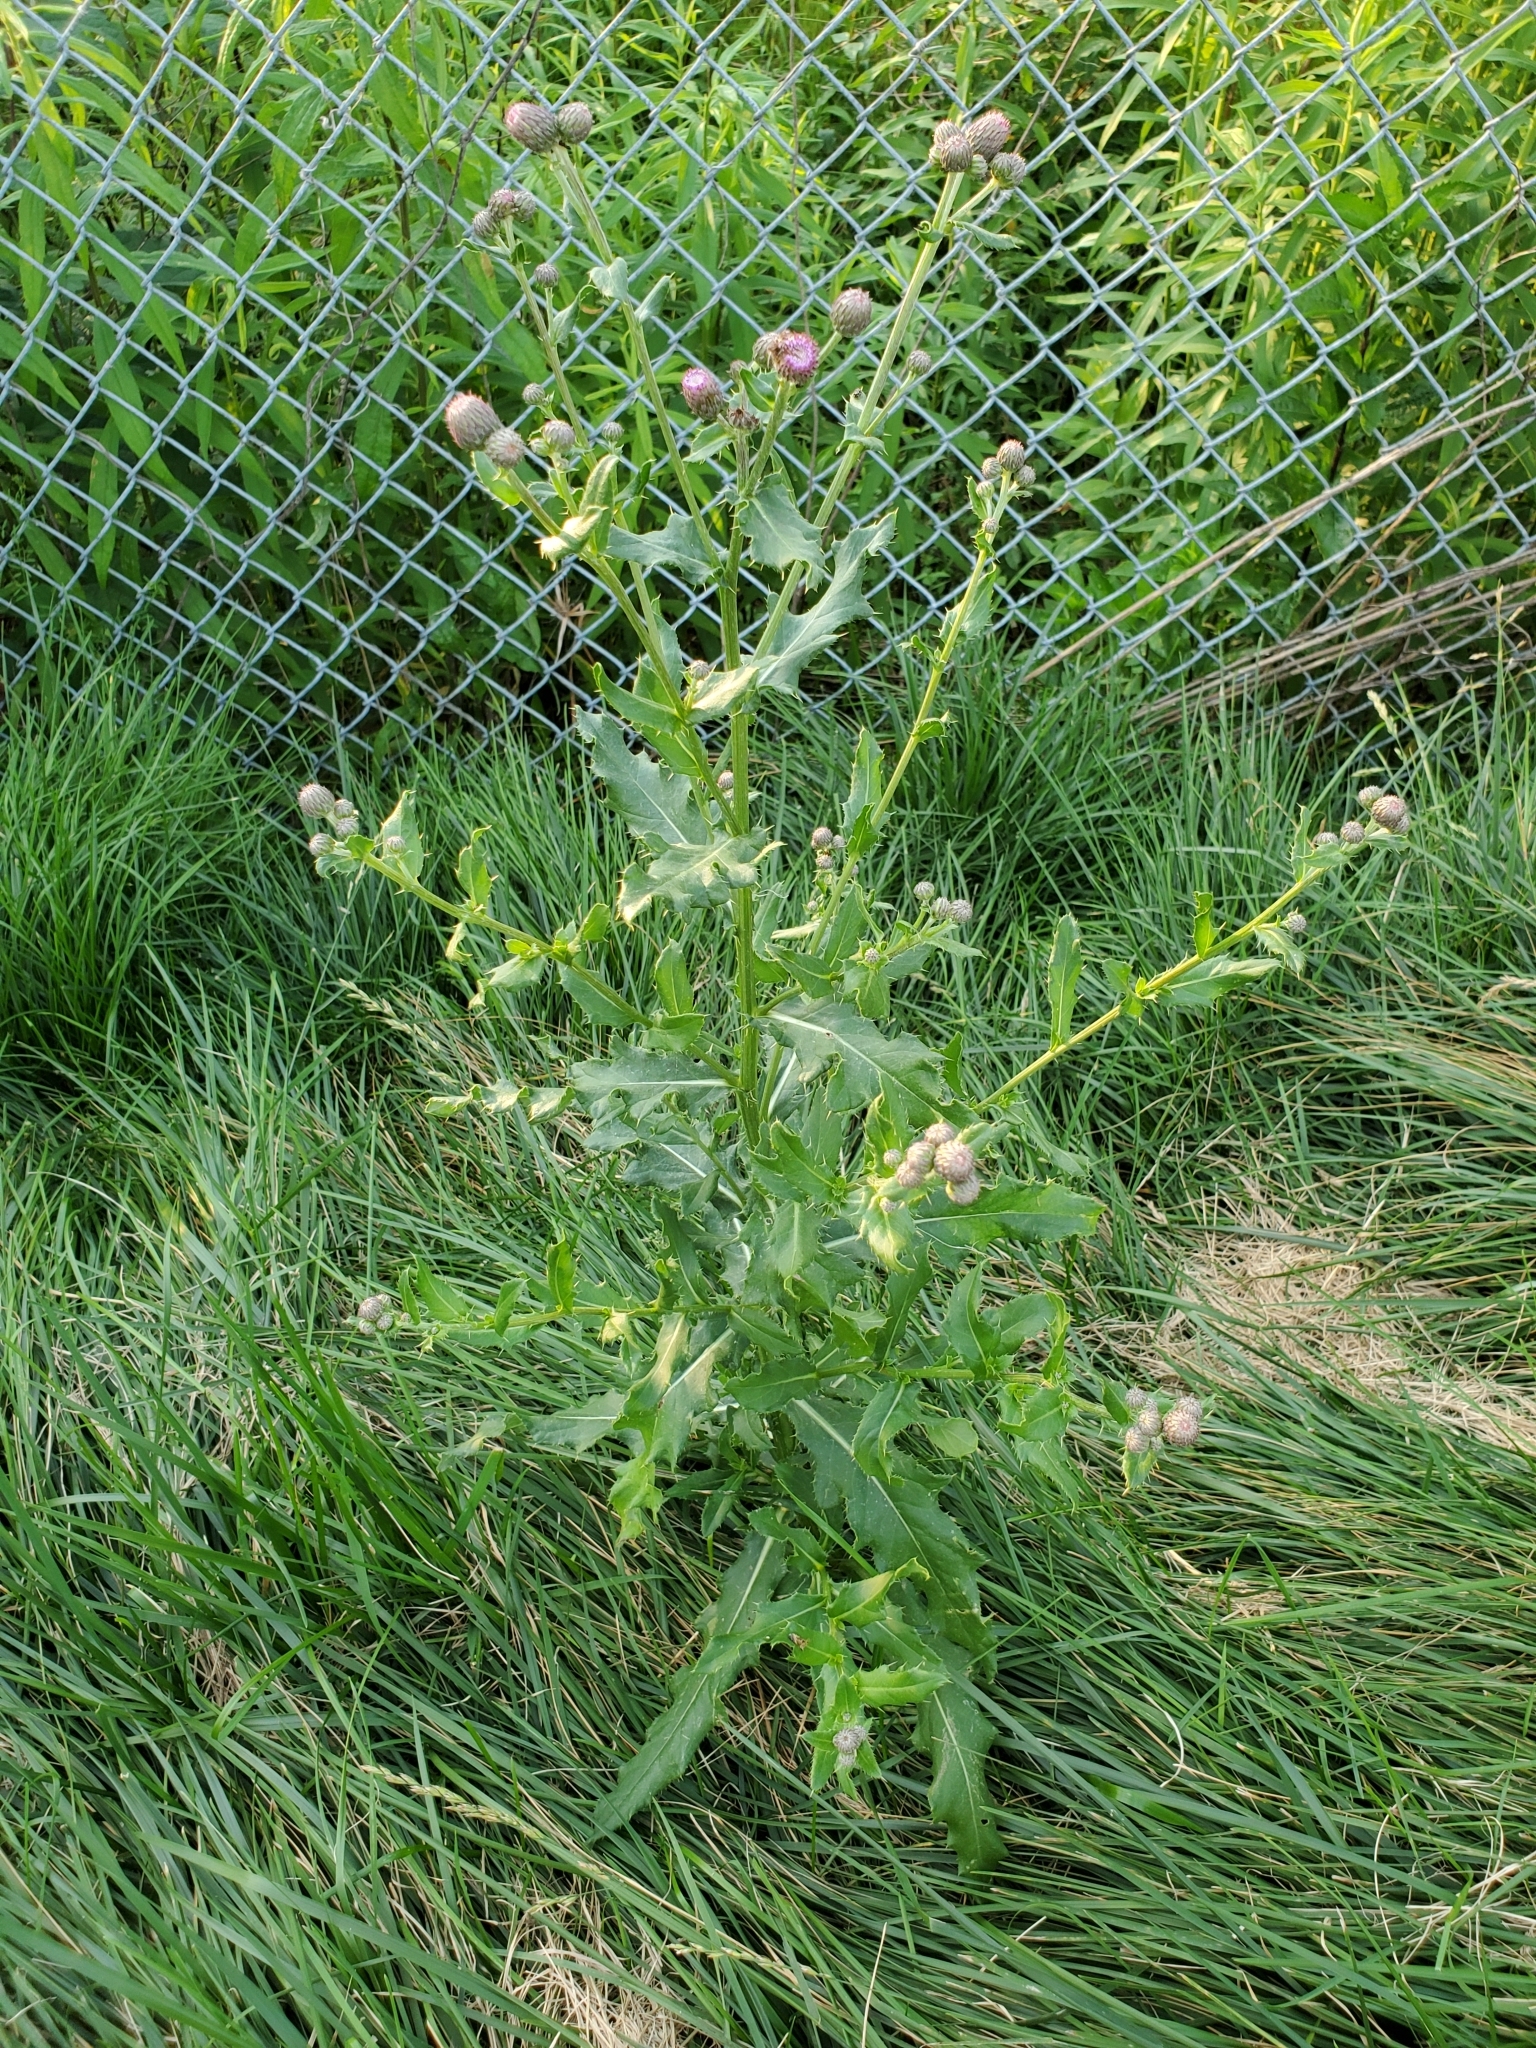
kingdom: Plantae
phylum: Tracheophyta
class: Magnoliopsida
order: Asterales
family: Asteraceae
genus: Cirsium
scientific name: Cirsium arvense
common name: Creeping thistle
